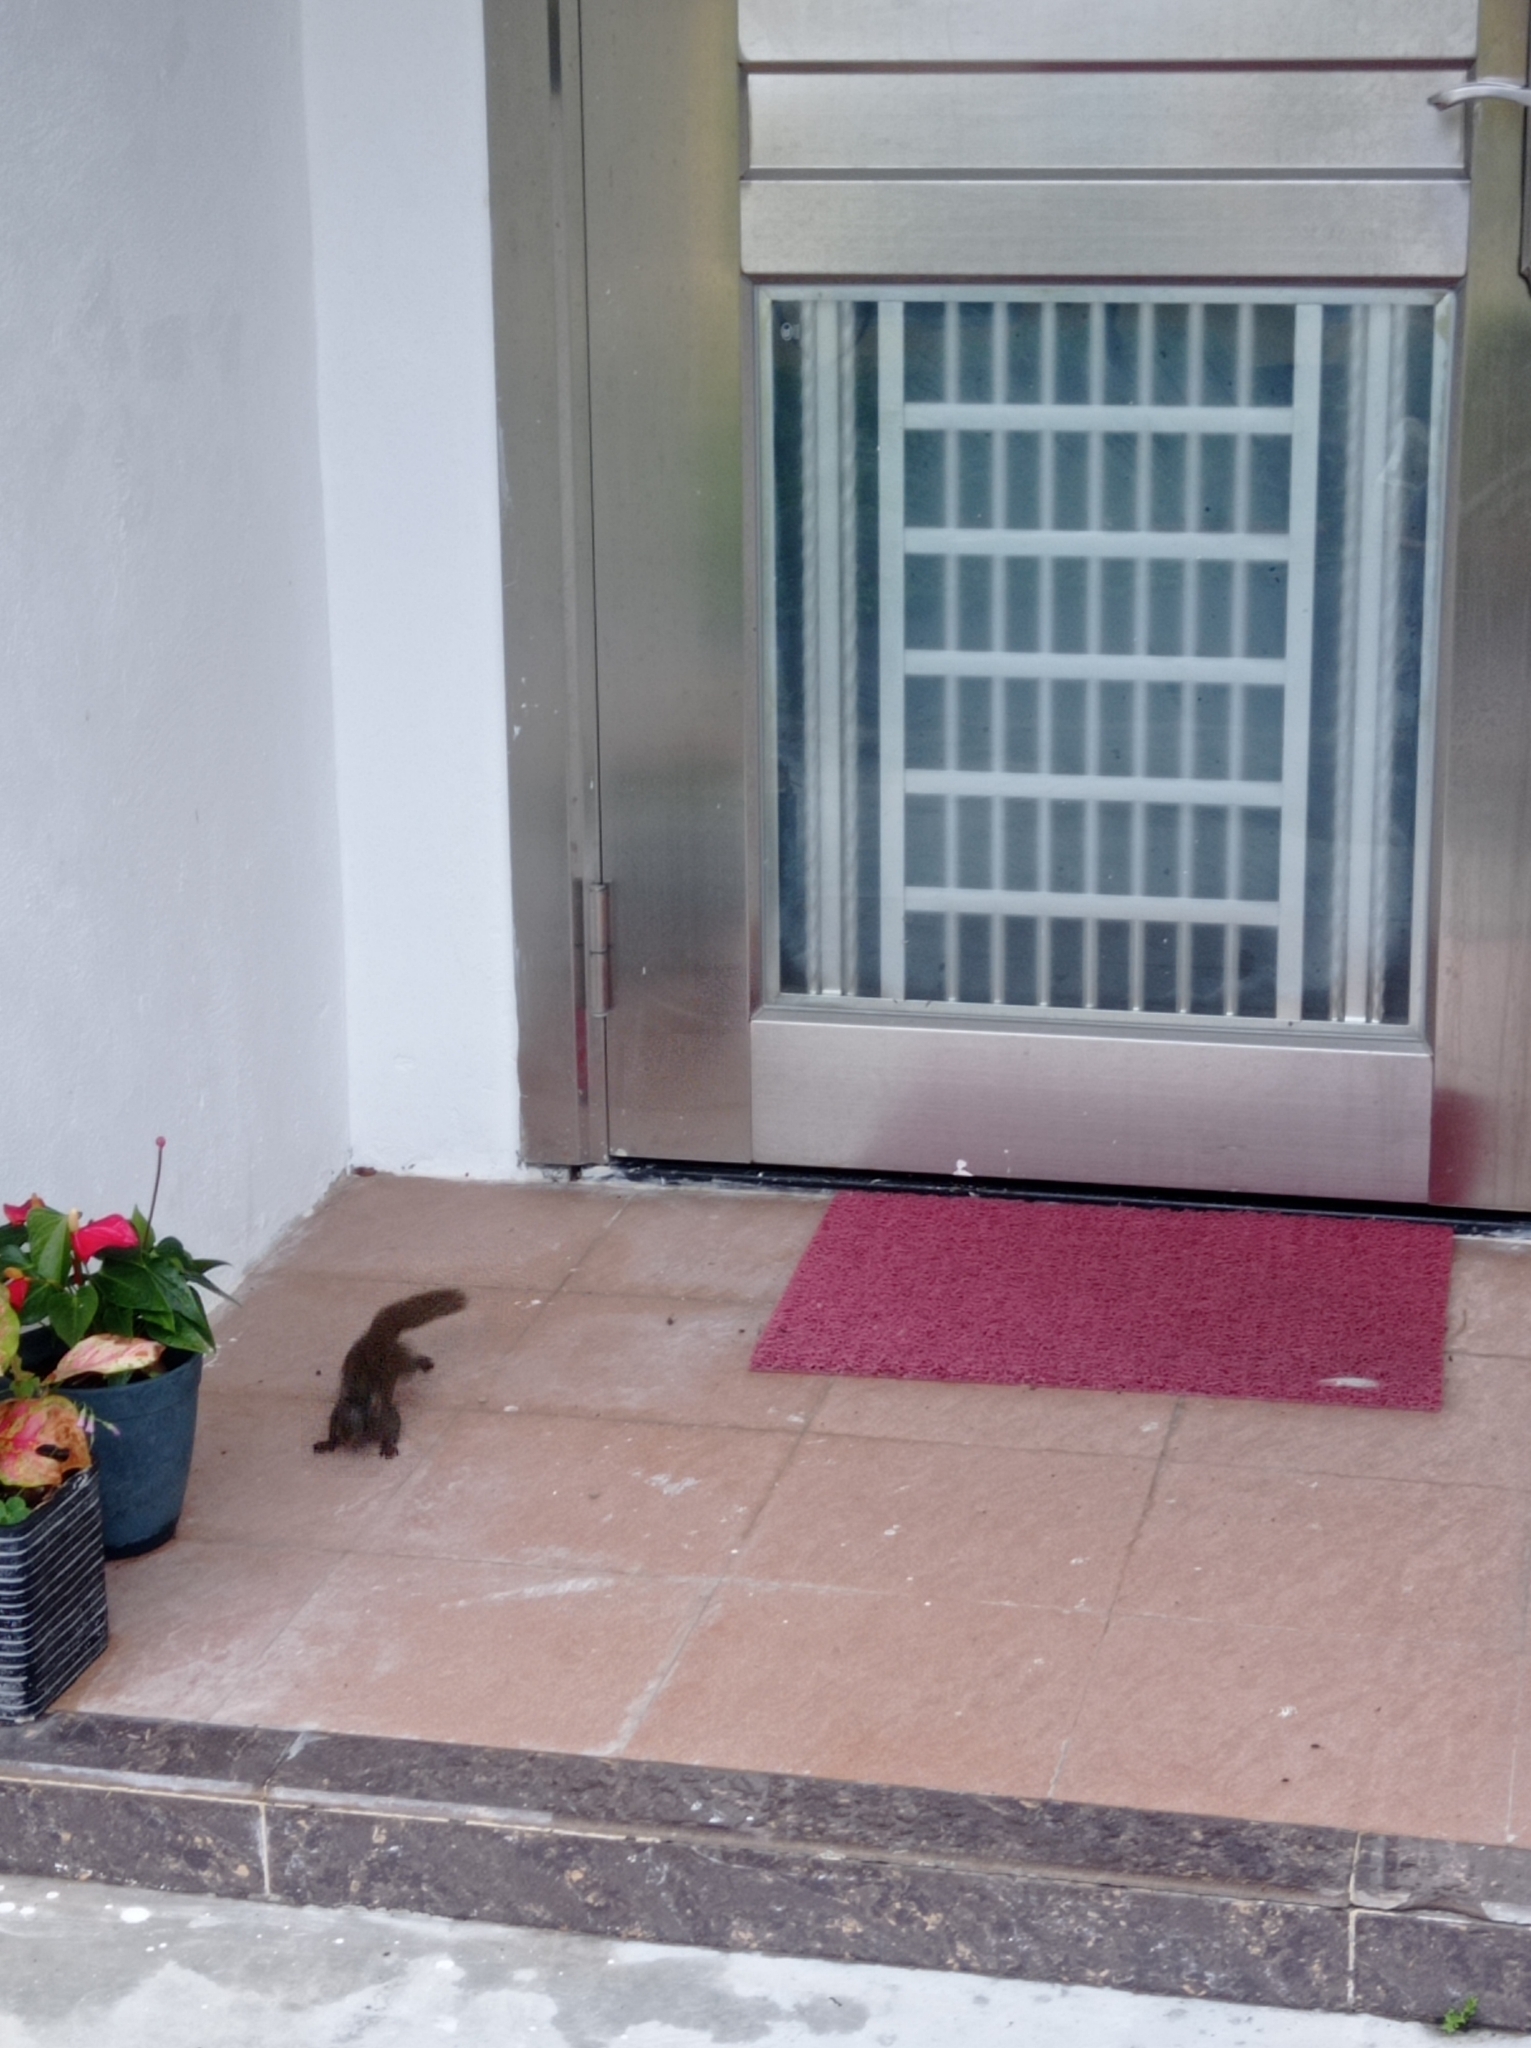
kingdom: Animalia
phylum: Chordata
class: Mammalia
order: Rodentia
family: Sciuridae
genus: Callosciurus
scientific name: Callosciurus erythraeus
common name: Pallas's squirrel
